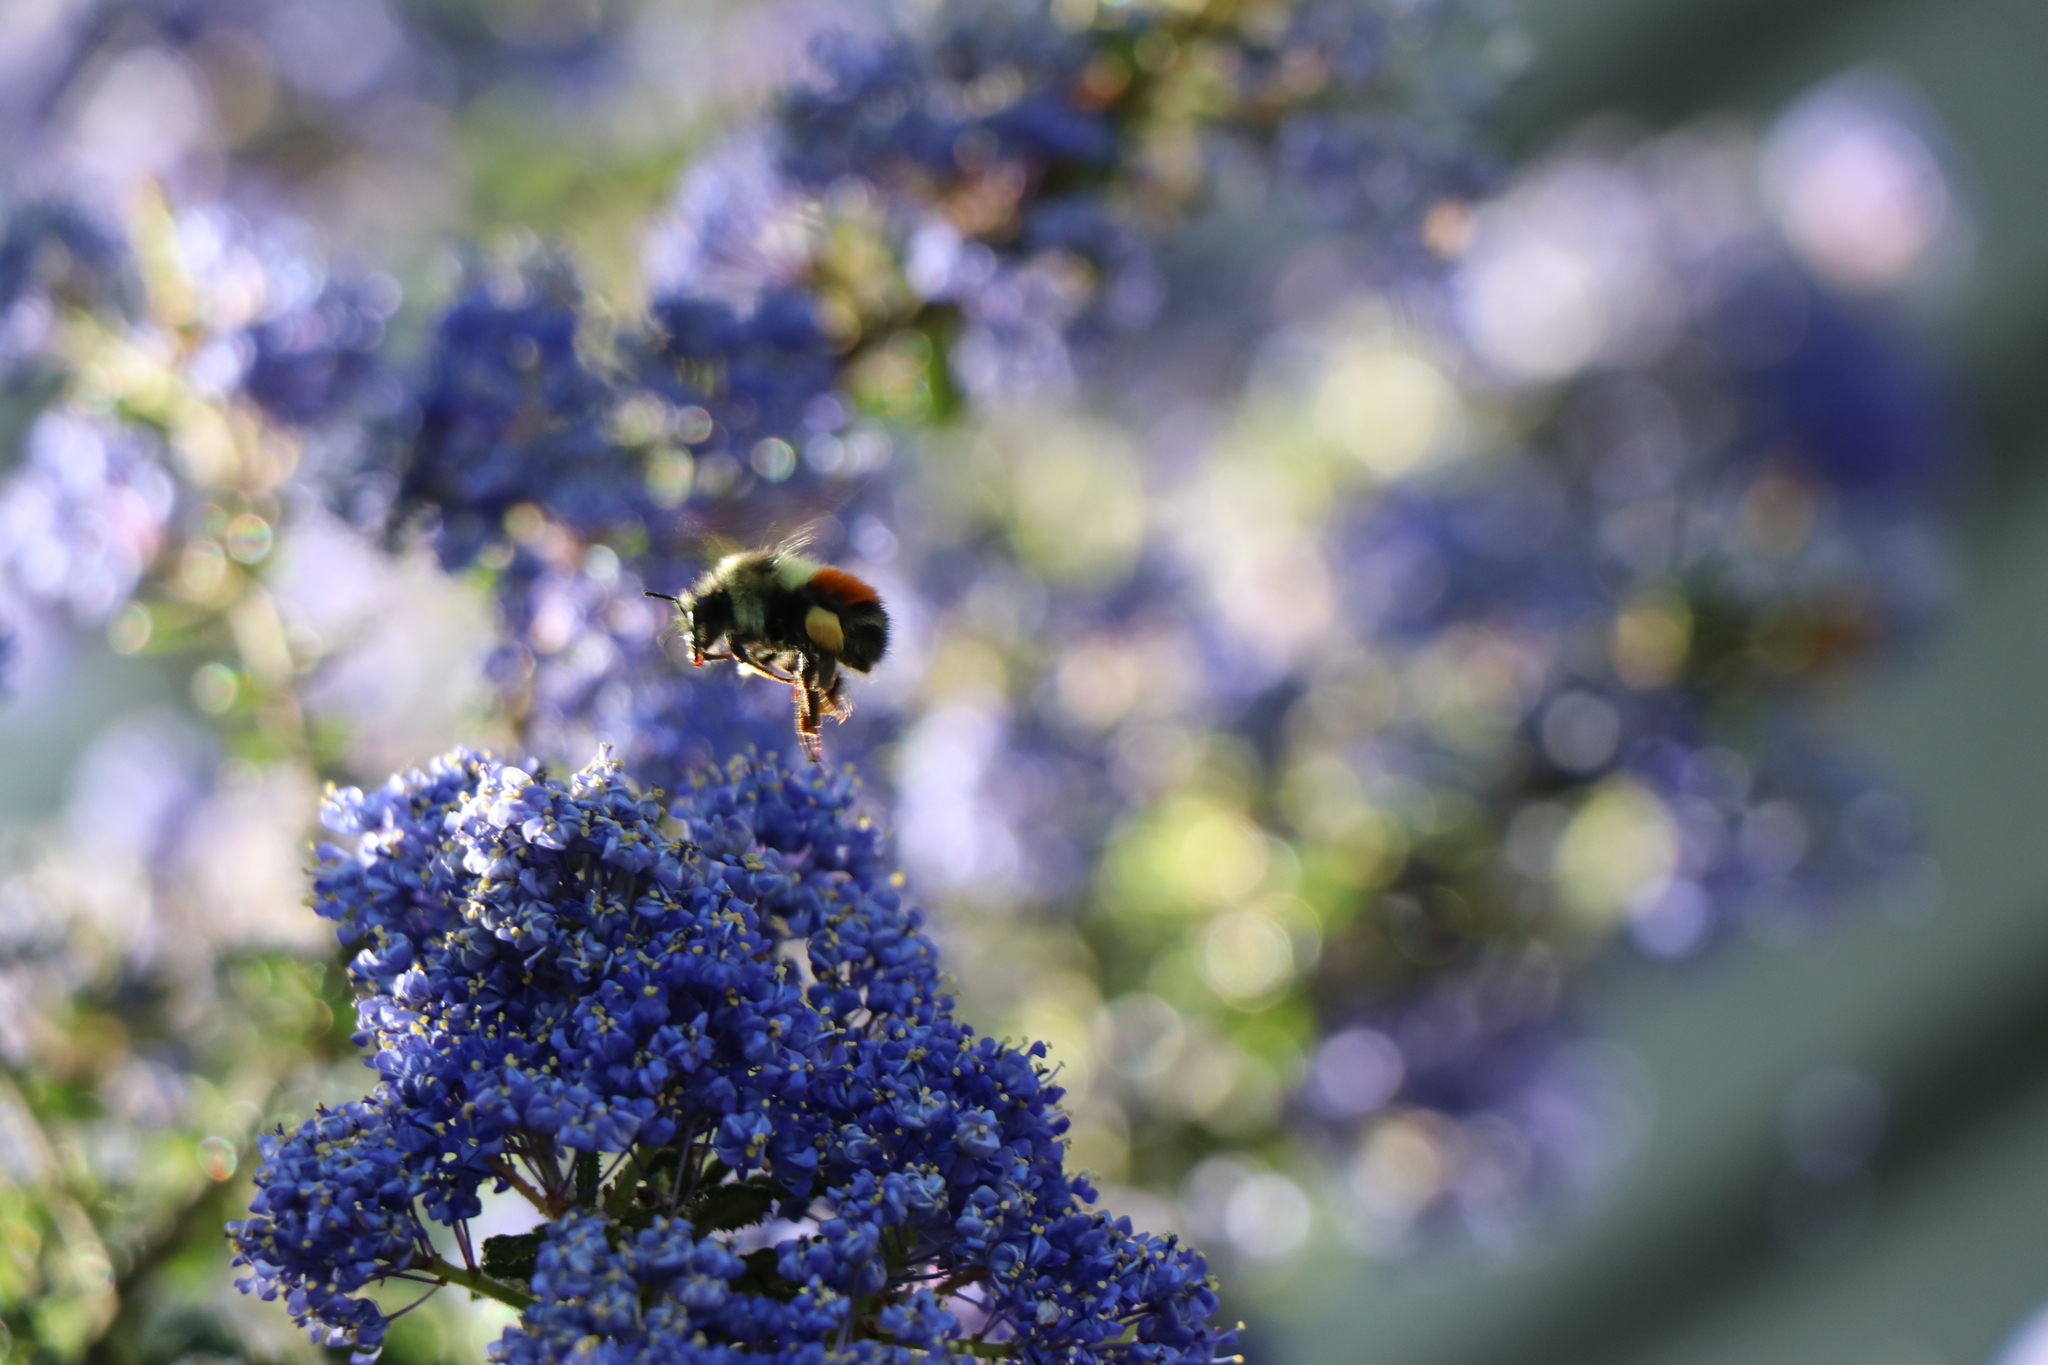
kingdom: Animalia
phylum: Arthropoda
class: Insecta
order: Hymenoptera
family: Apidae
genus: Bombus
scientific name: Bombus melanopygus
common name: Black tail bumble bee
